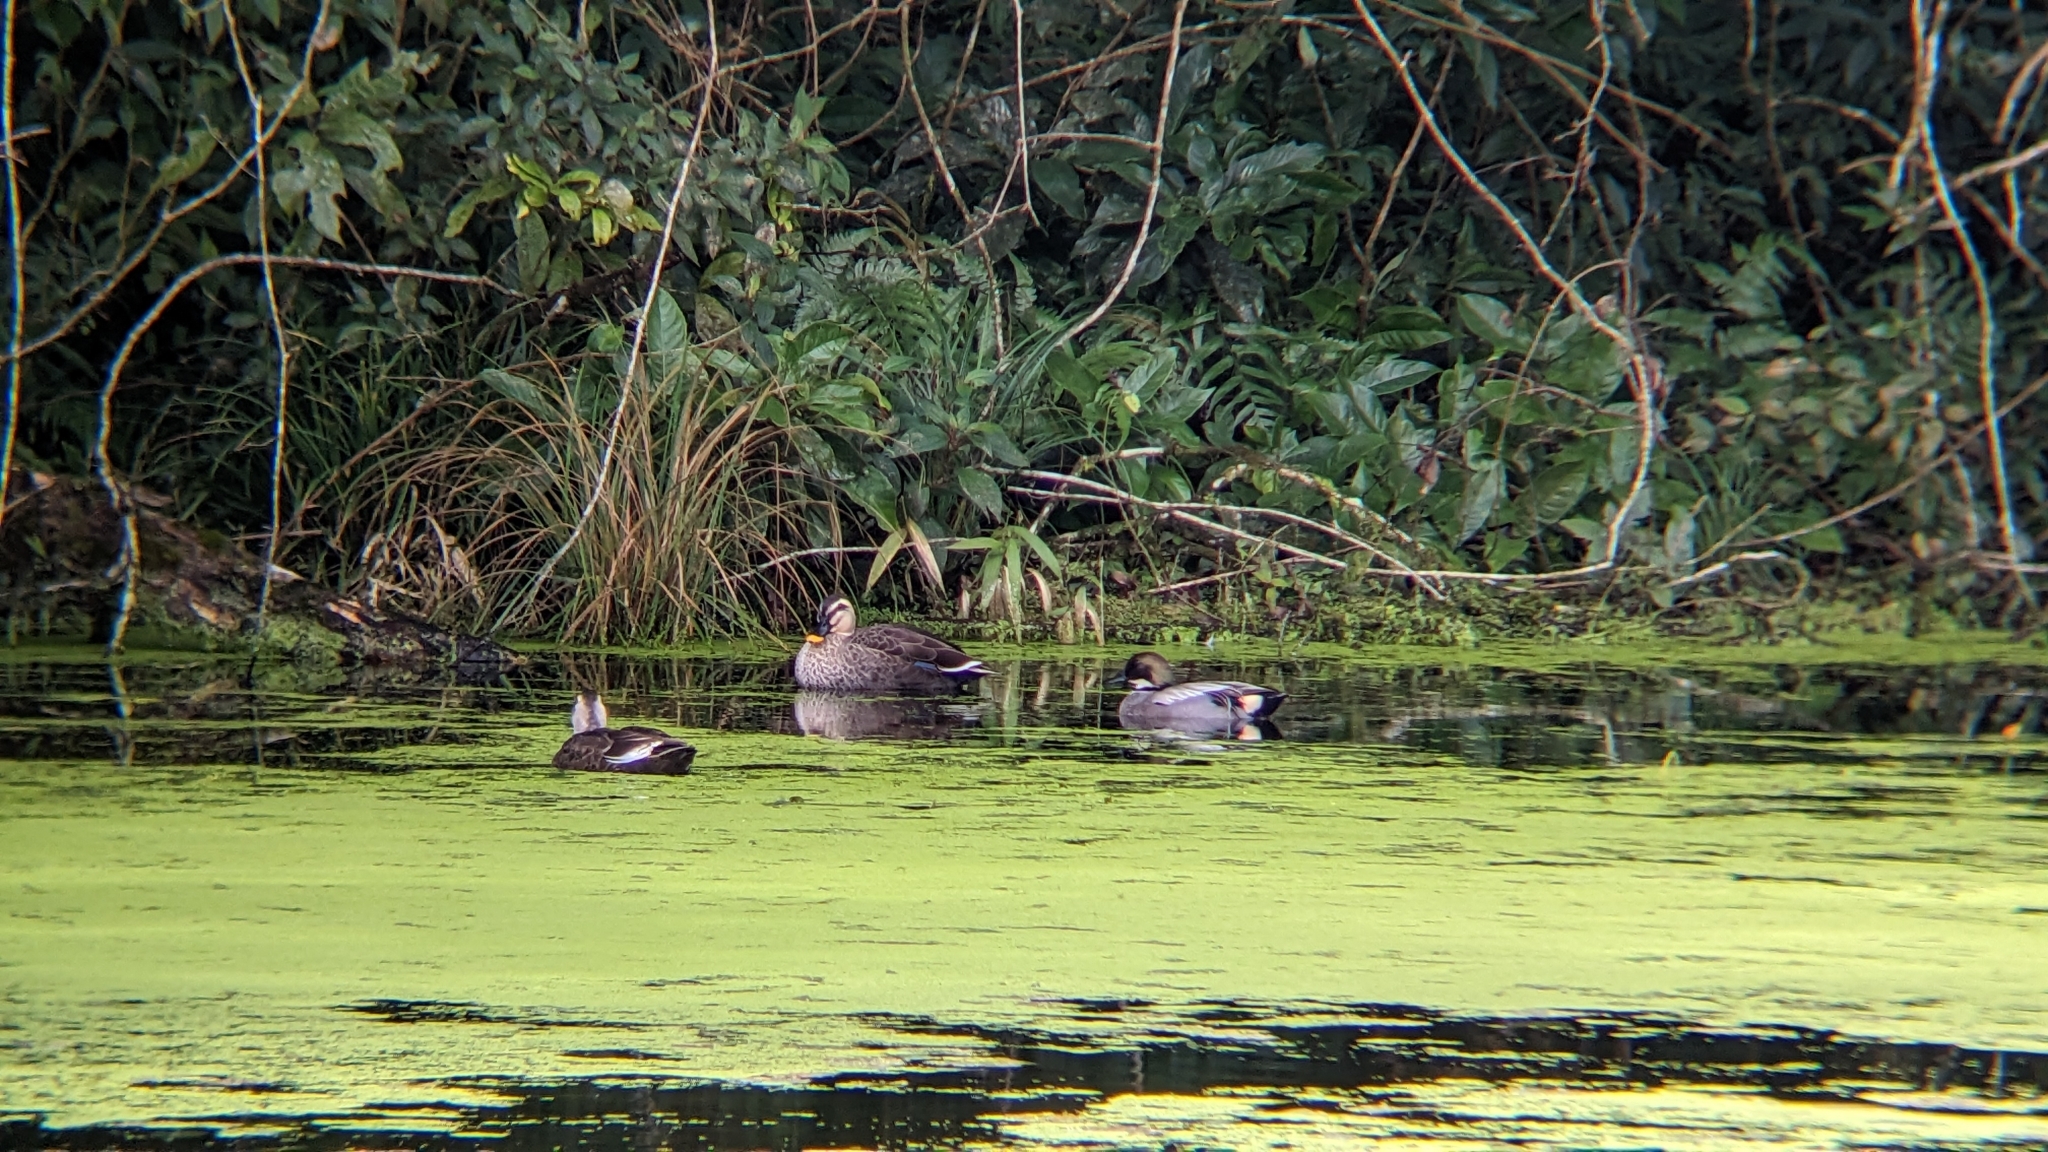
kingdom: Animalia
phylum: Chordata
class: Aves
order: Anseriformes
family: Anatidae
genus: Mareca
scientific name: Mareca falcata
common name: Falcated duck
